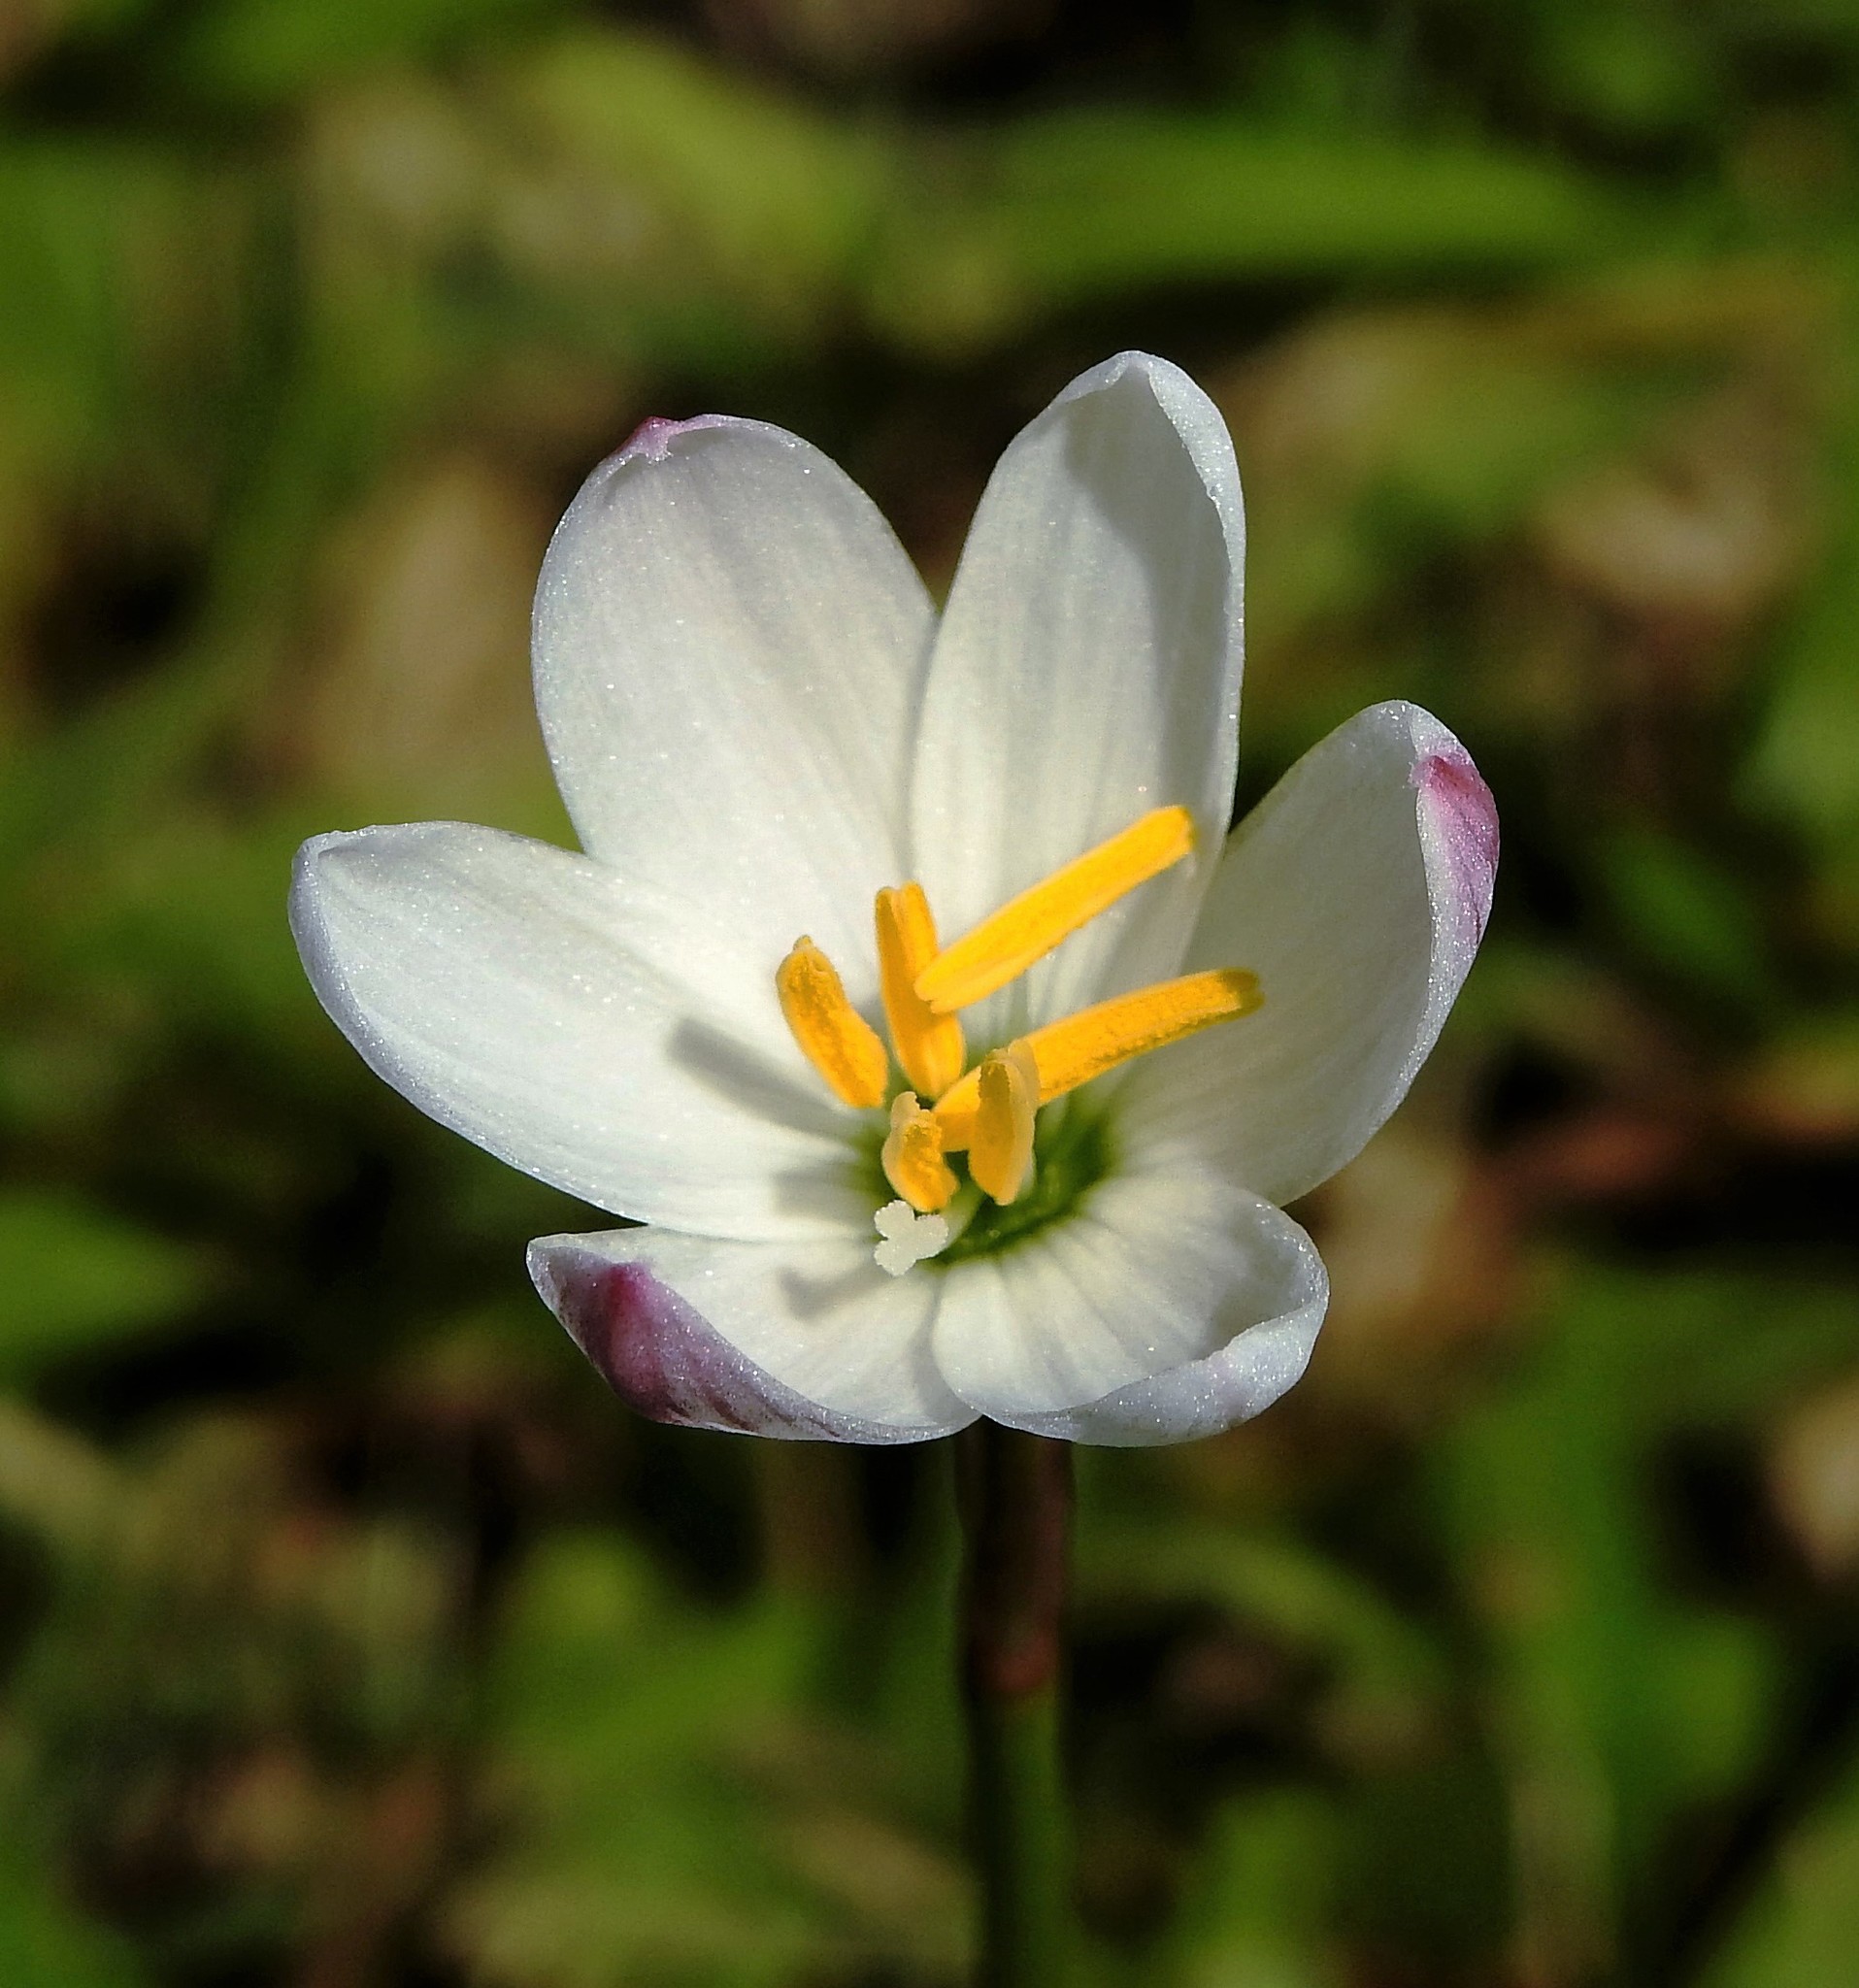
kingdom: Plantae
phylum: Tracheophyta
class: Liliopsida
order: Asparagales
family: Amaryllidaceae
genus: Zephyranthes
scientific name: Zephyranthes minima
